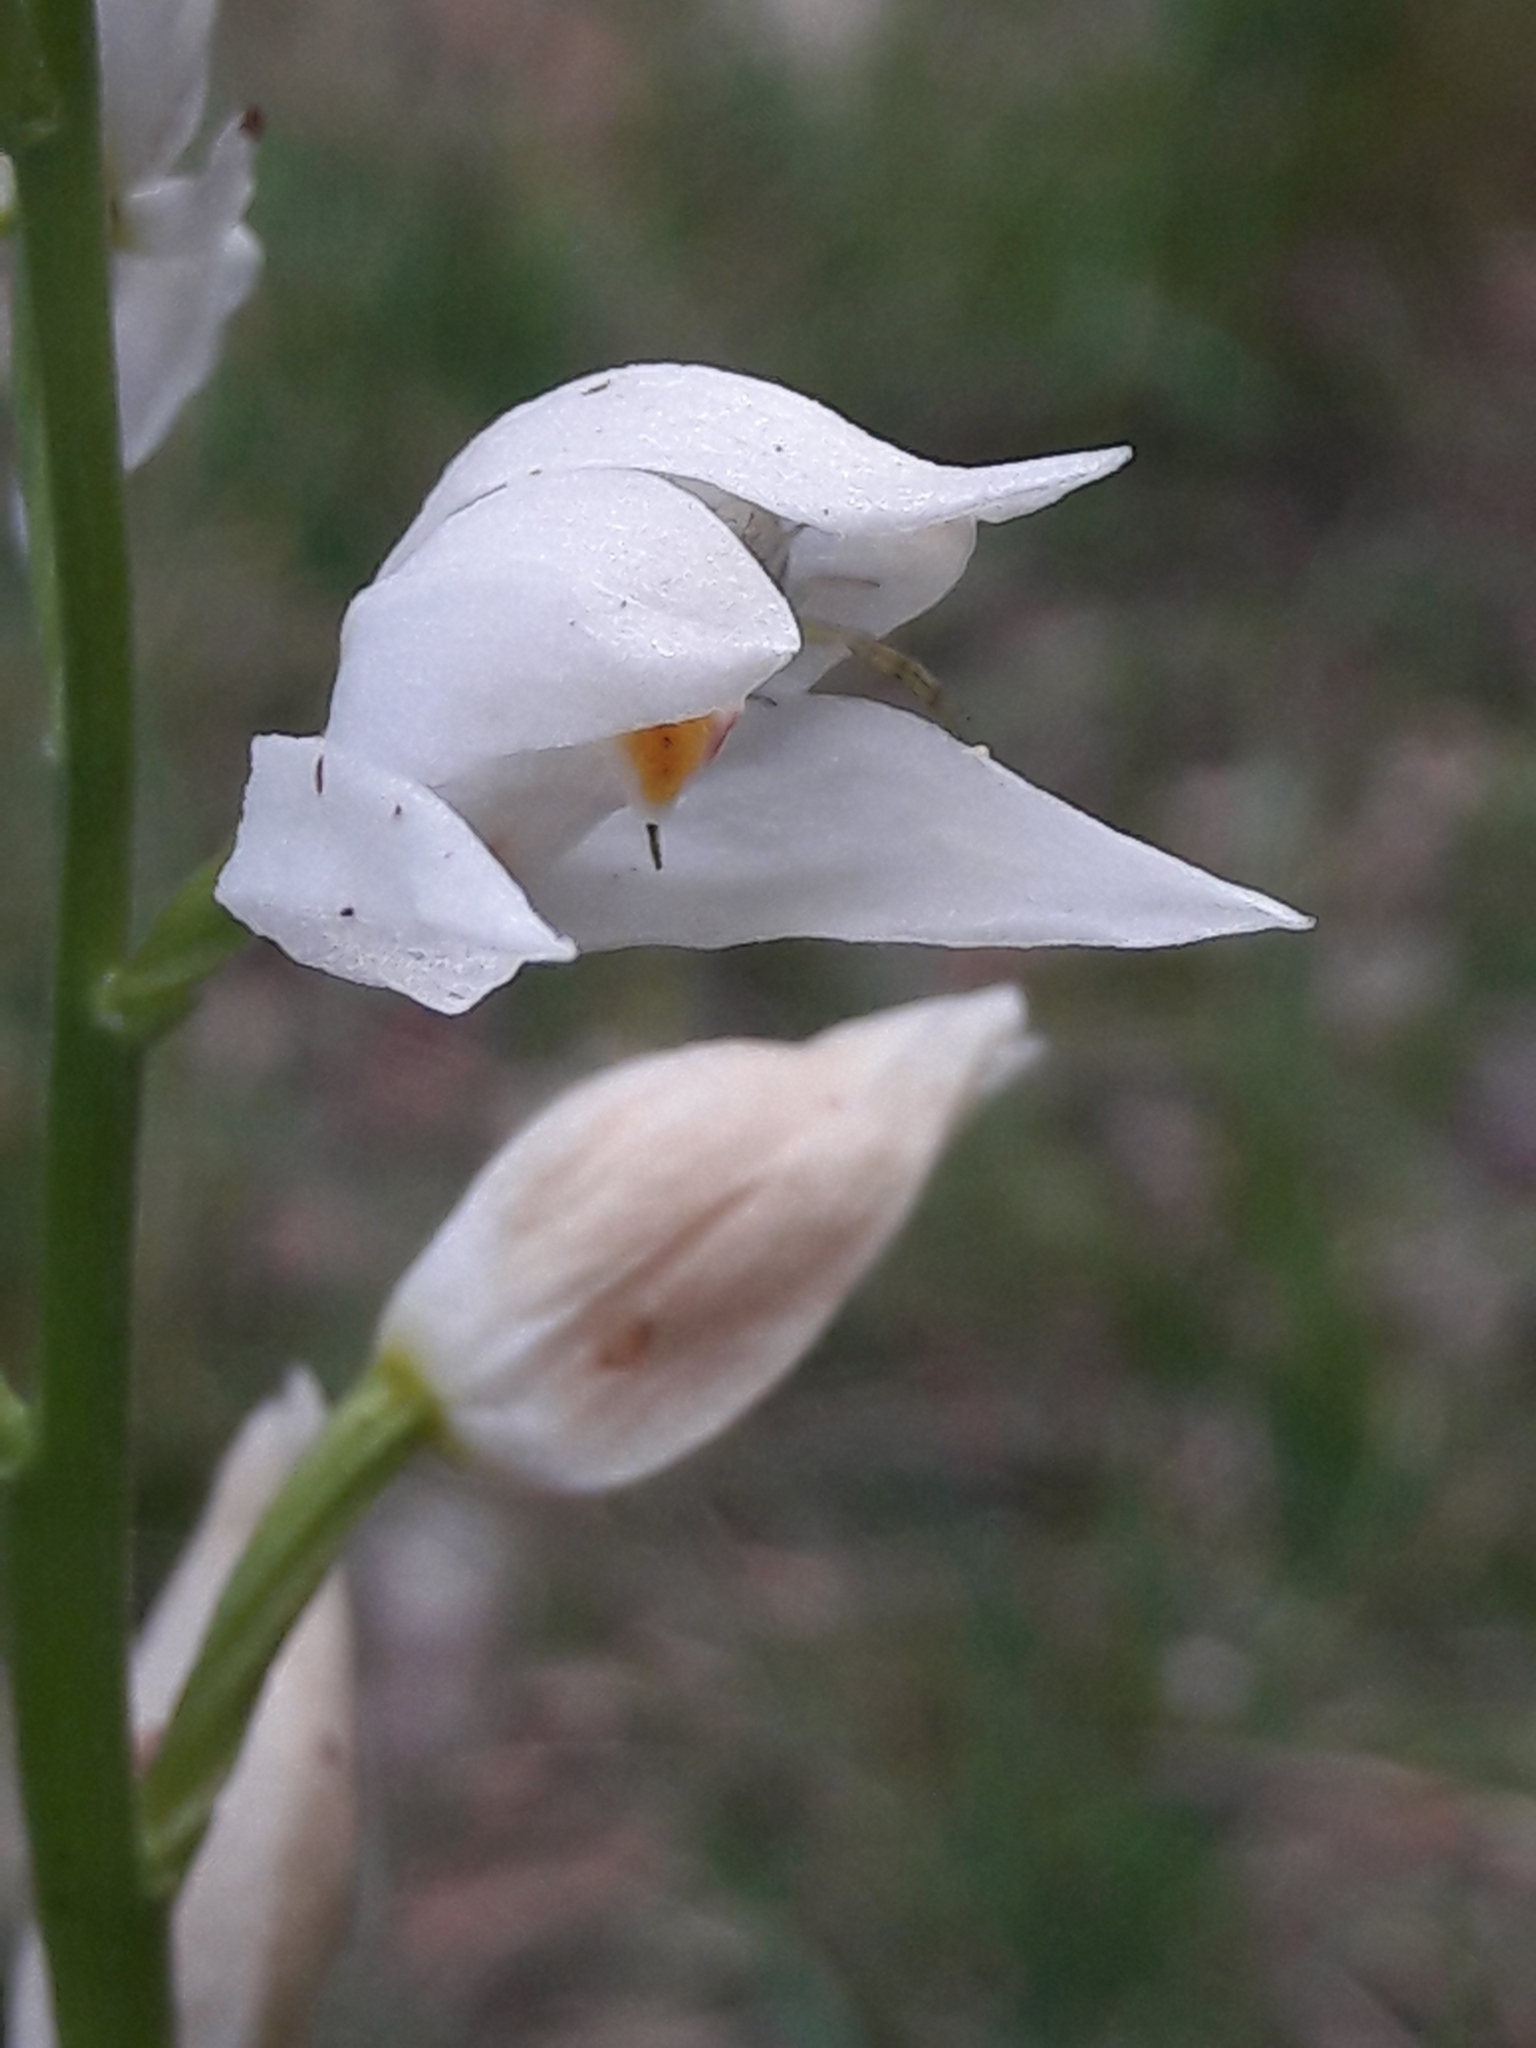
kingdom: Plantae
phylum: Tracheophyta
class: Liliopsida
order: Asparagales
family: Orchidaceae
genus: Cephalanthera
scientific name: Cephalanthera longifolia
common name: Narrow-leaved helleborine
